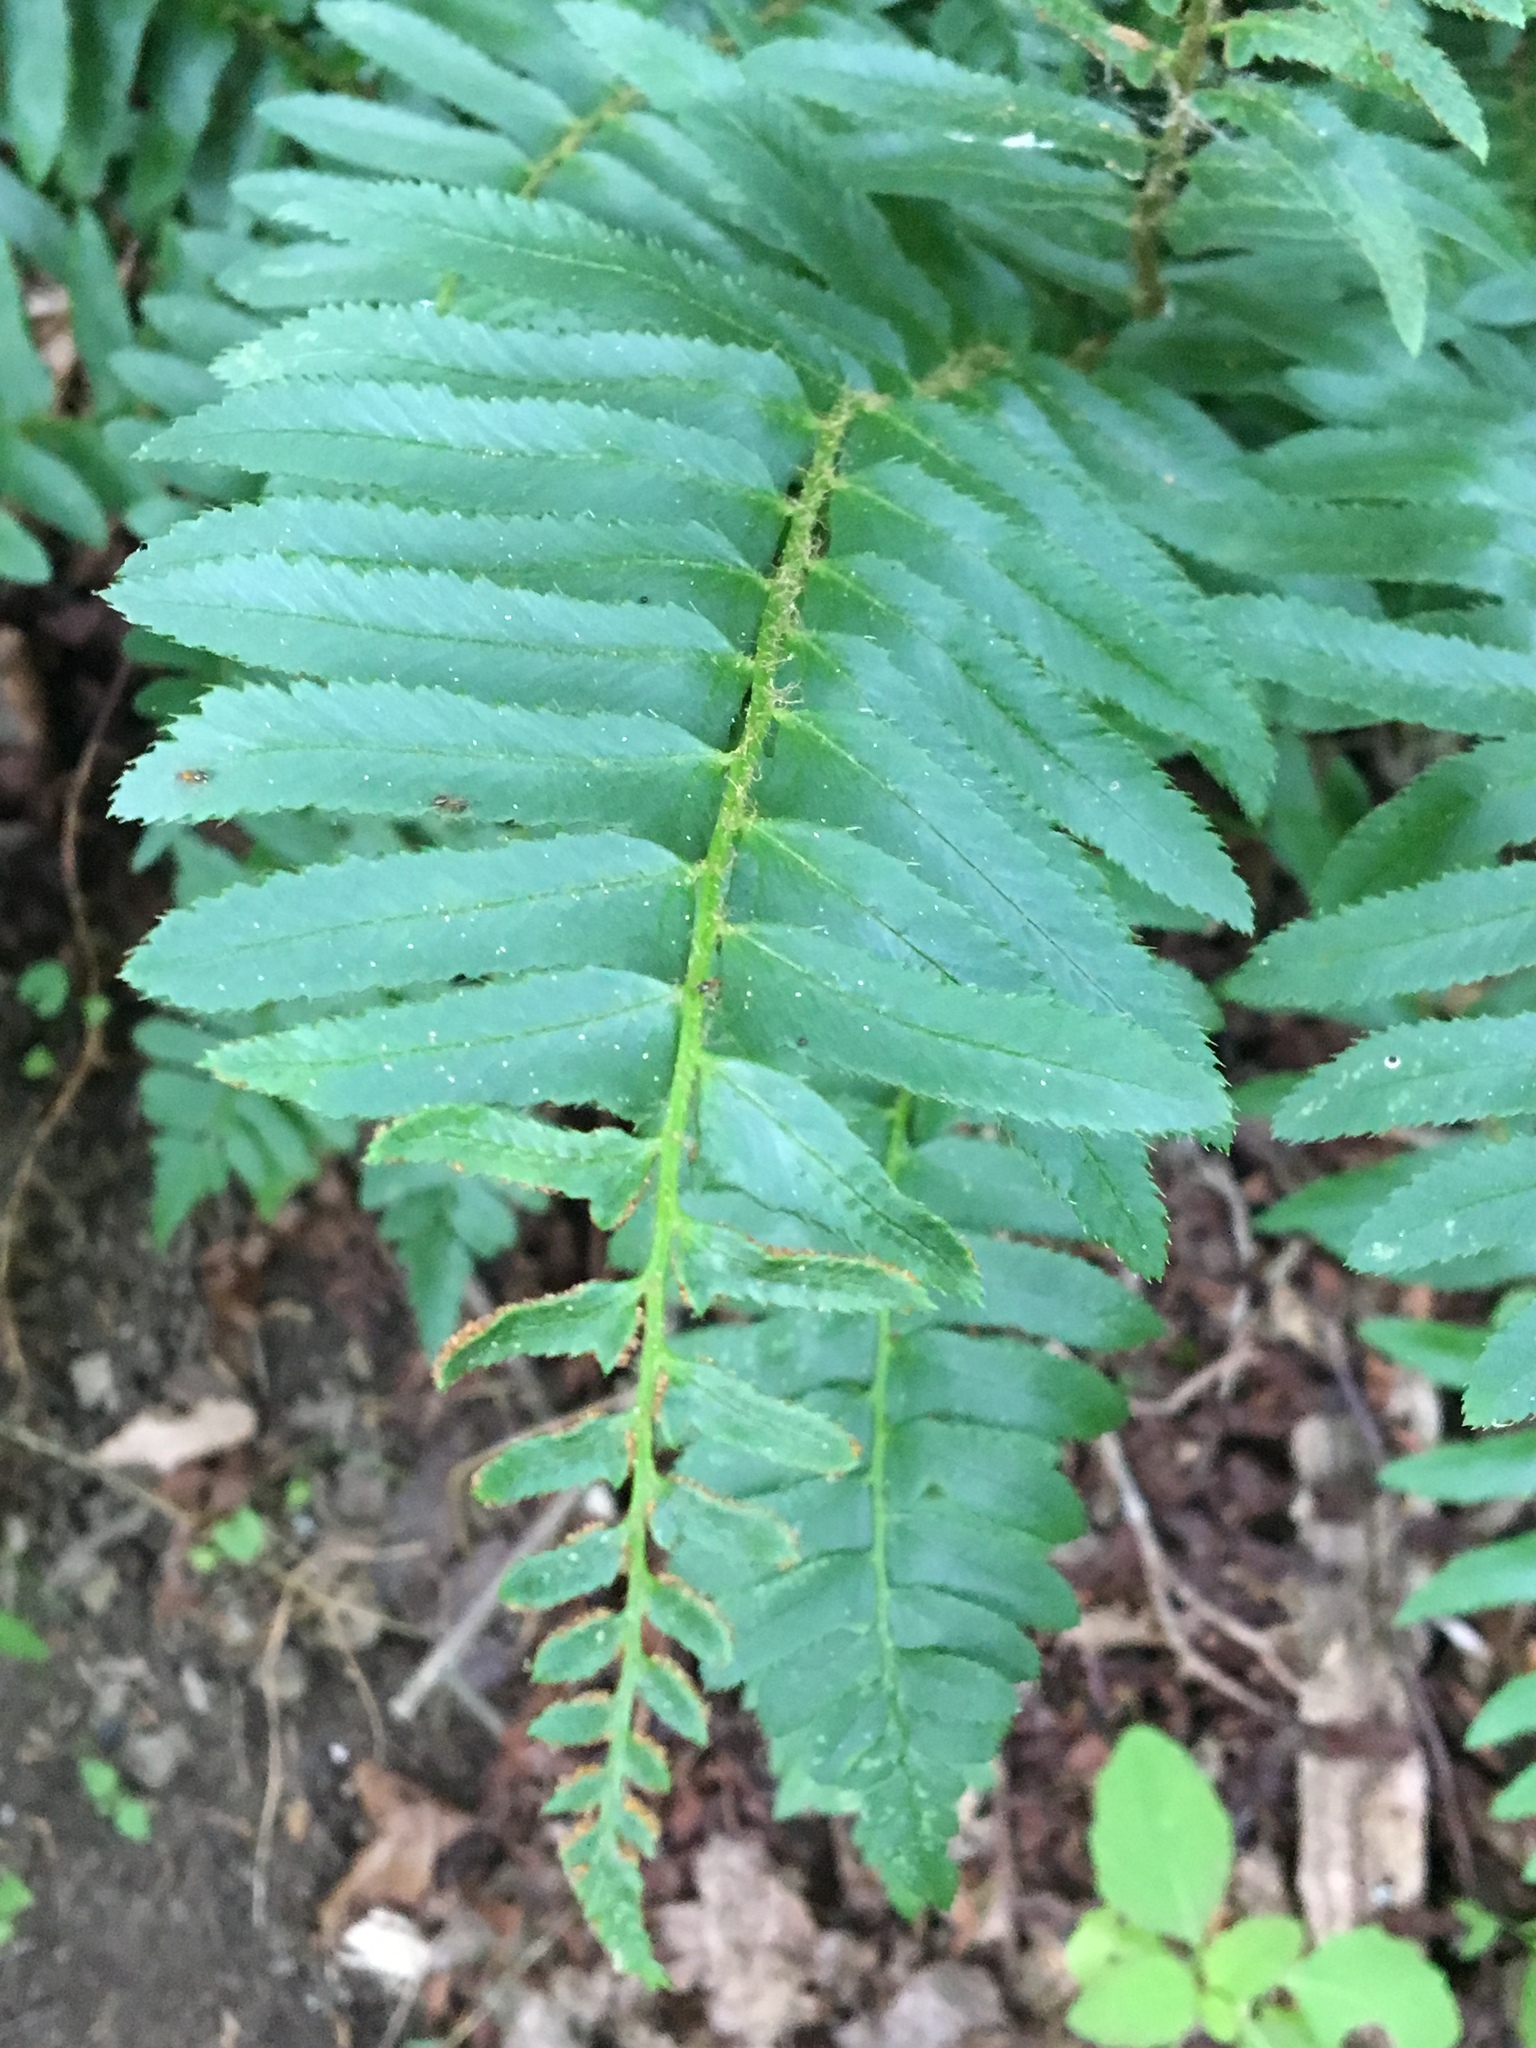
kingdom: Plantae
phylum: Tracheophyta
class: Polypodiopsida
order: Polypodiales
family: Dryopteridaceae
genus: Polystichum
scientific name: Polystichum acrostichoides
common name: Christmas fern
